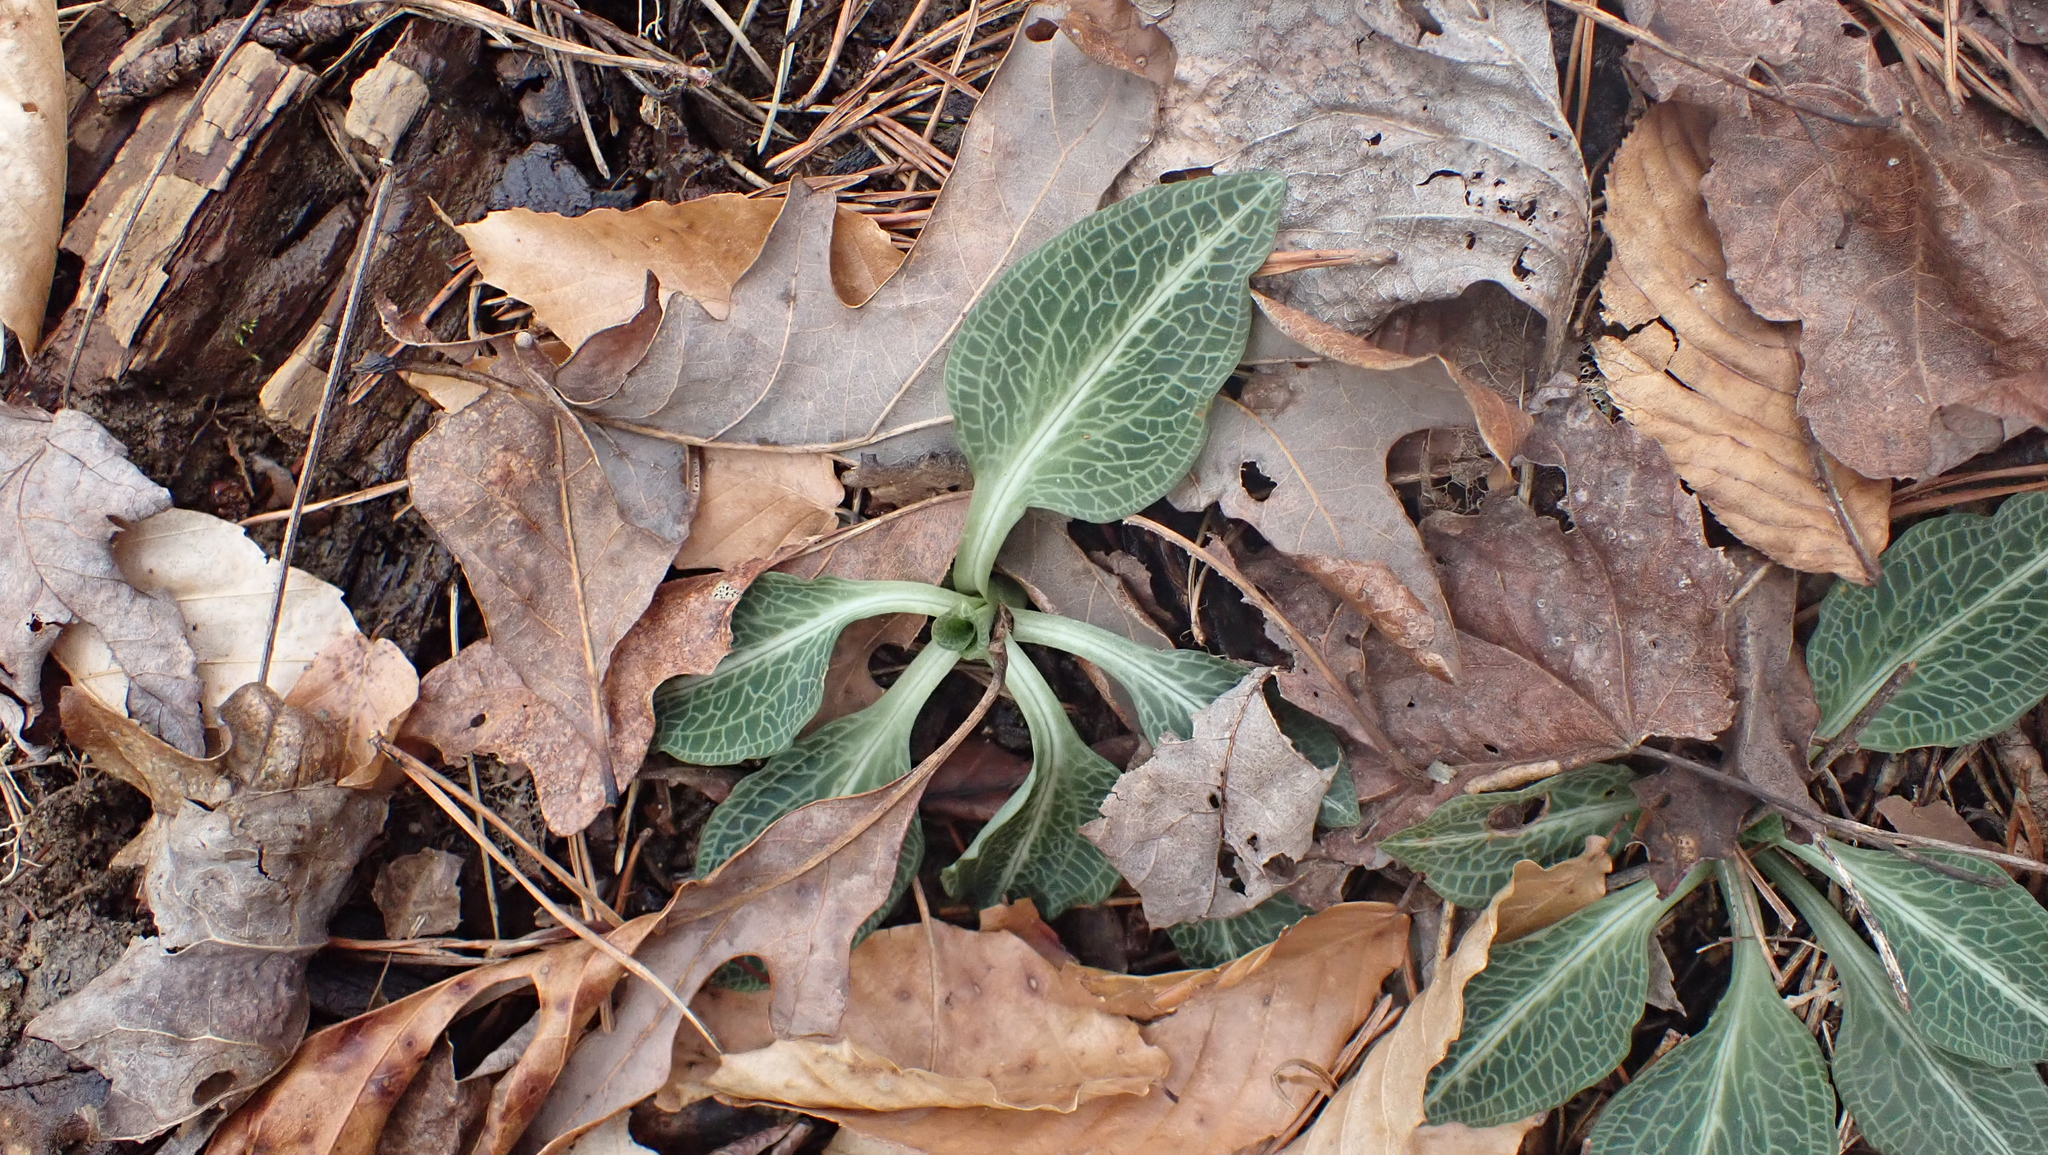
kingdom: Plantae
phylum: Tracheophyta
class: Liliopsida
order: Asparagales
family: Orchidaceae
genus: Goodyera
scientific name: Goodyera pubescens
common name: Downy rattlesnake-plantain
